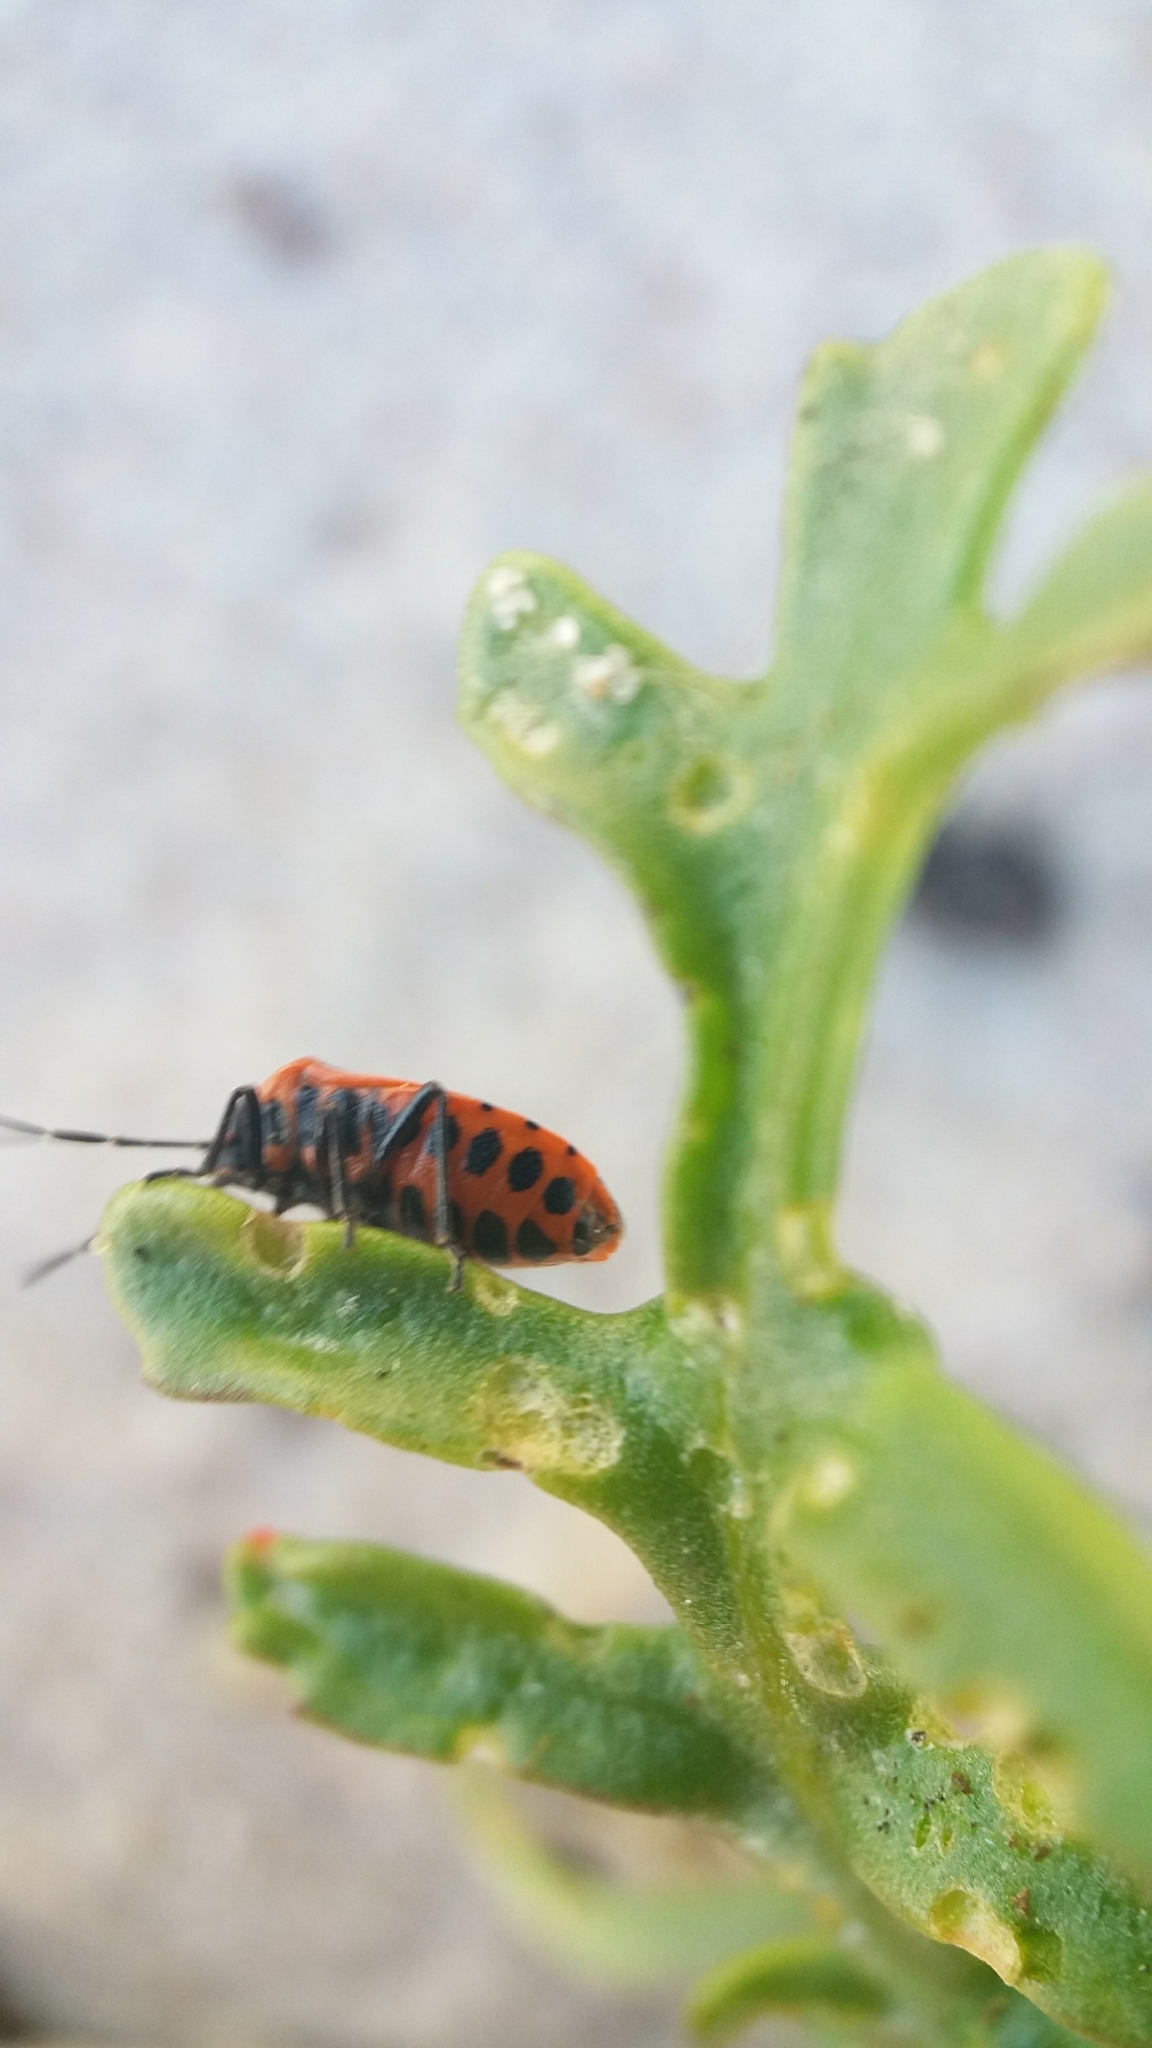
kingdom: Animalia
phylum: Arthropoda
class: Insecta
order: Hemiptera
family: Pentatomidae
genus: Eurydema
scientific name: Eurydema dominulus
